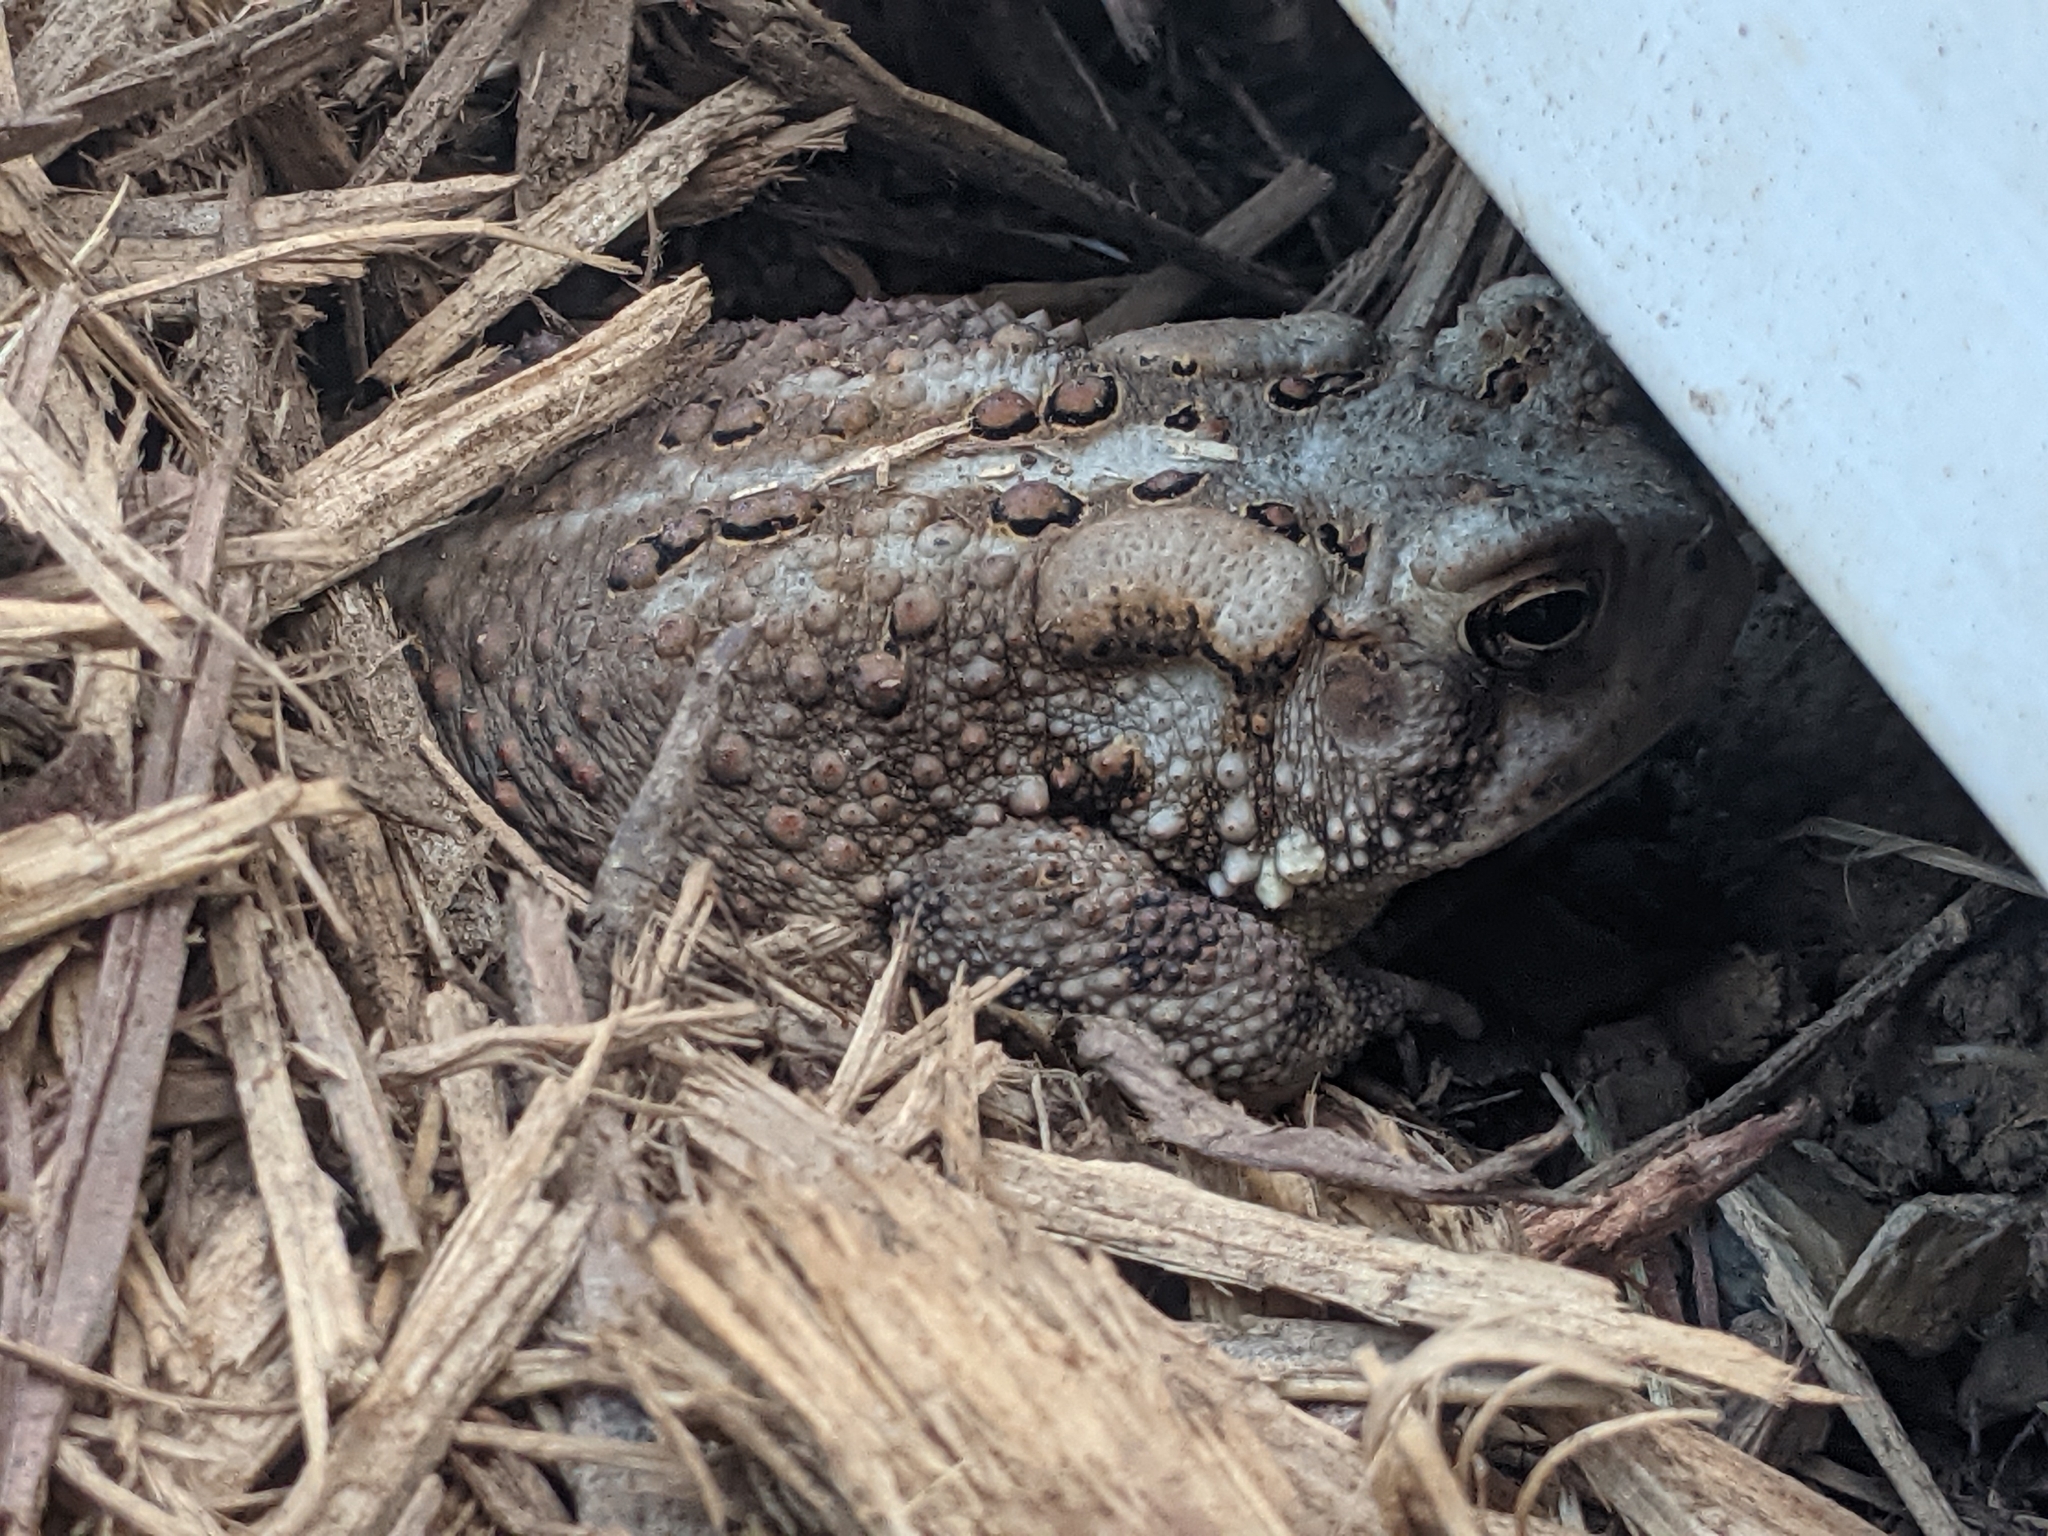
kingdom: Animalia
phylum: Chordata
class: Amphibia
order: Anura
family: Bufonidae
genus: Anaxyrus
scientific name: Anaxyrus americanus
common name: American toad
